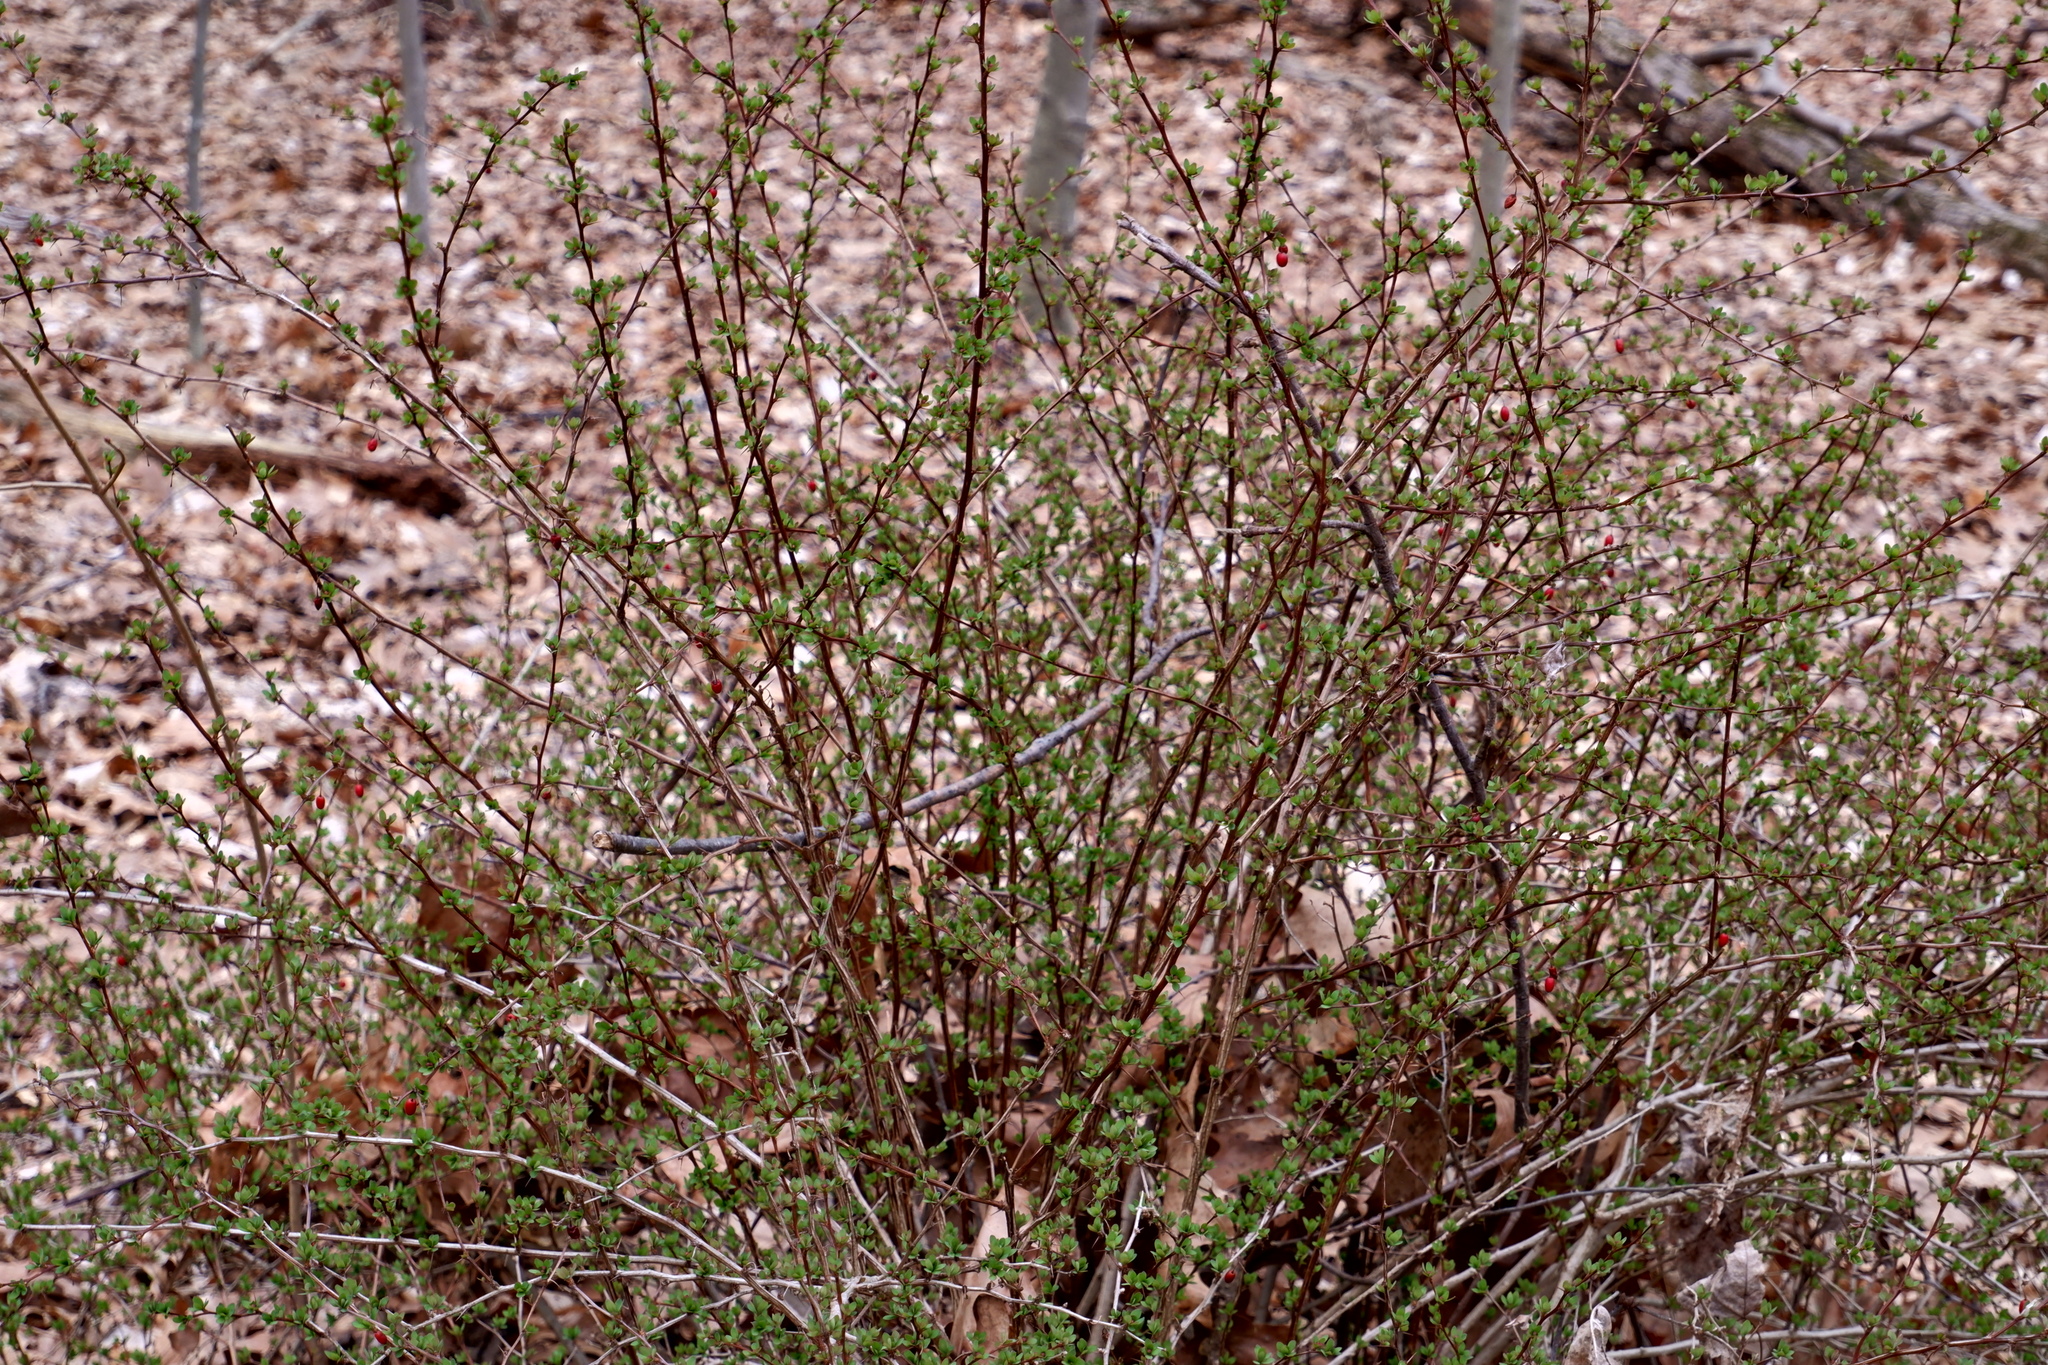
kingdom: Plantae
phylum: Tracheophyta
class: Magnoliopsida
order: Ranunculales
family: Berberidaceae
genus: Berberis
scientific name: Berberis thunbergii
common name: Japanese barberry
